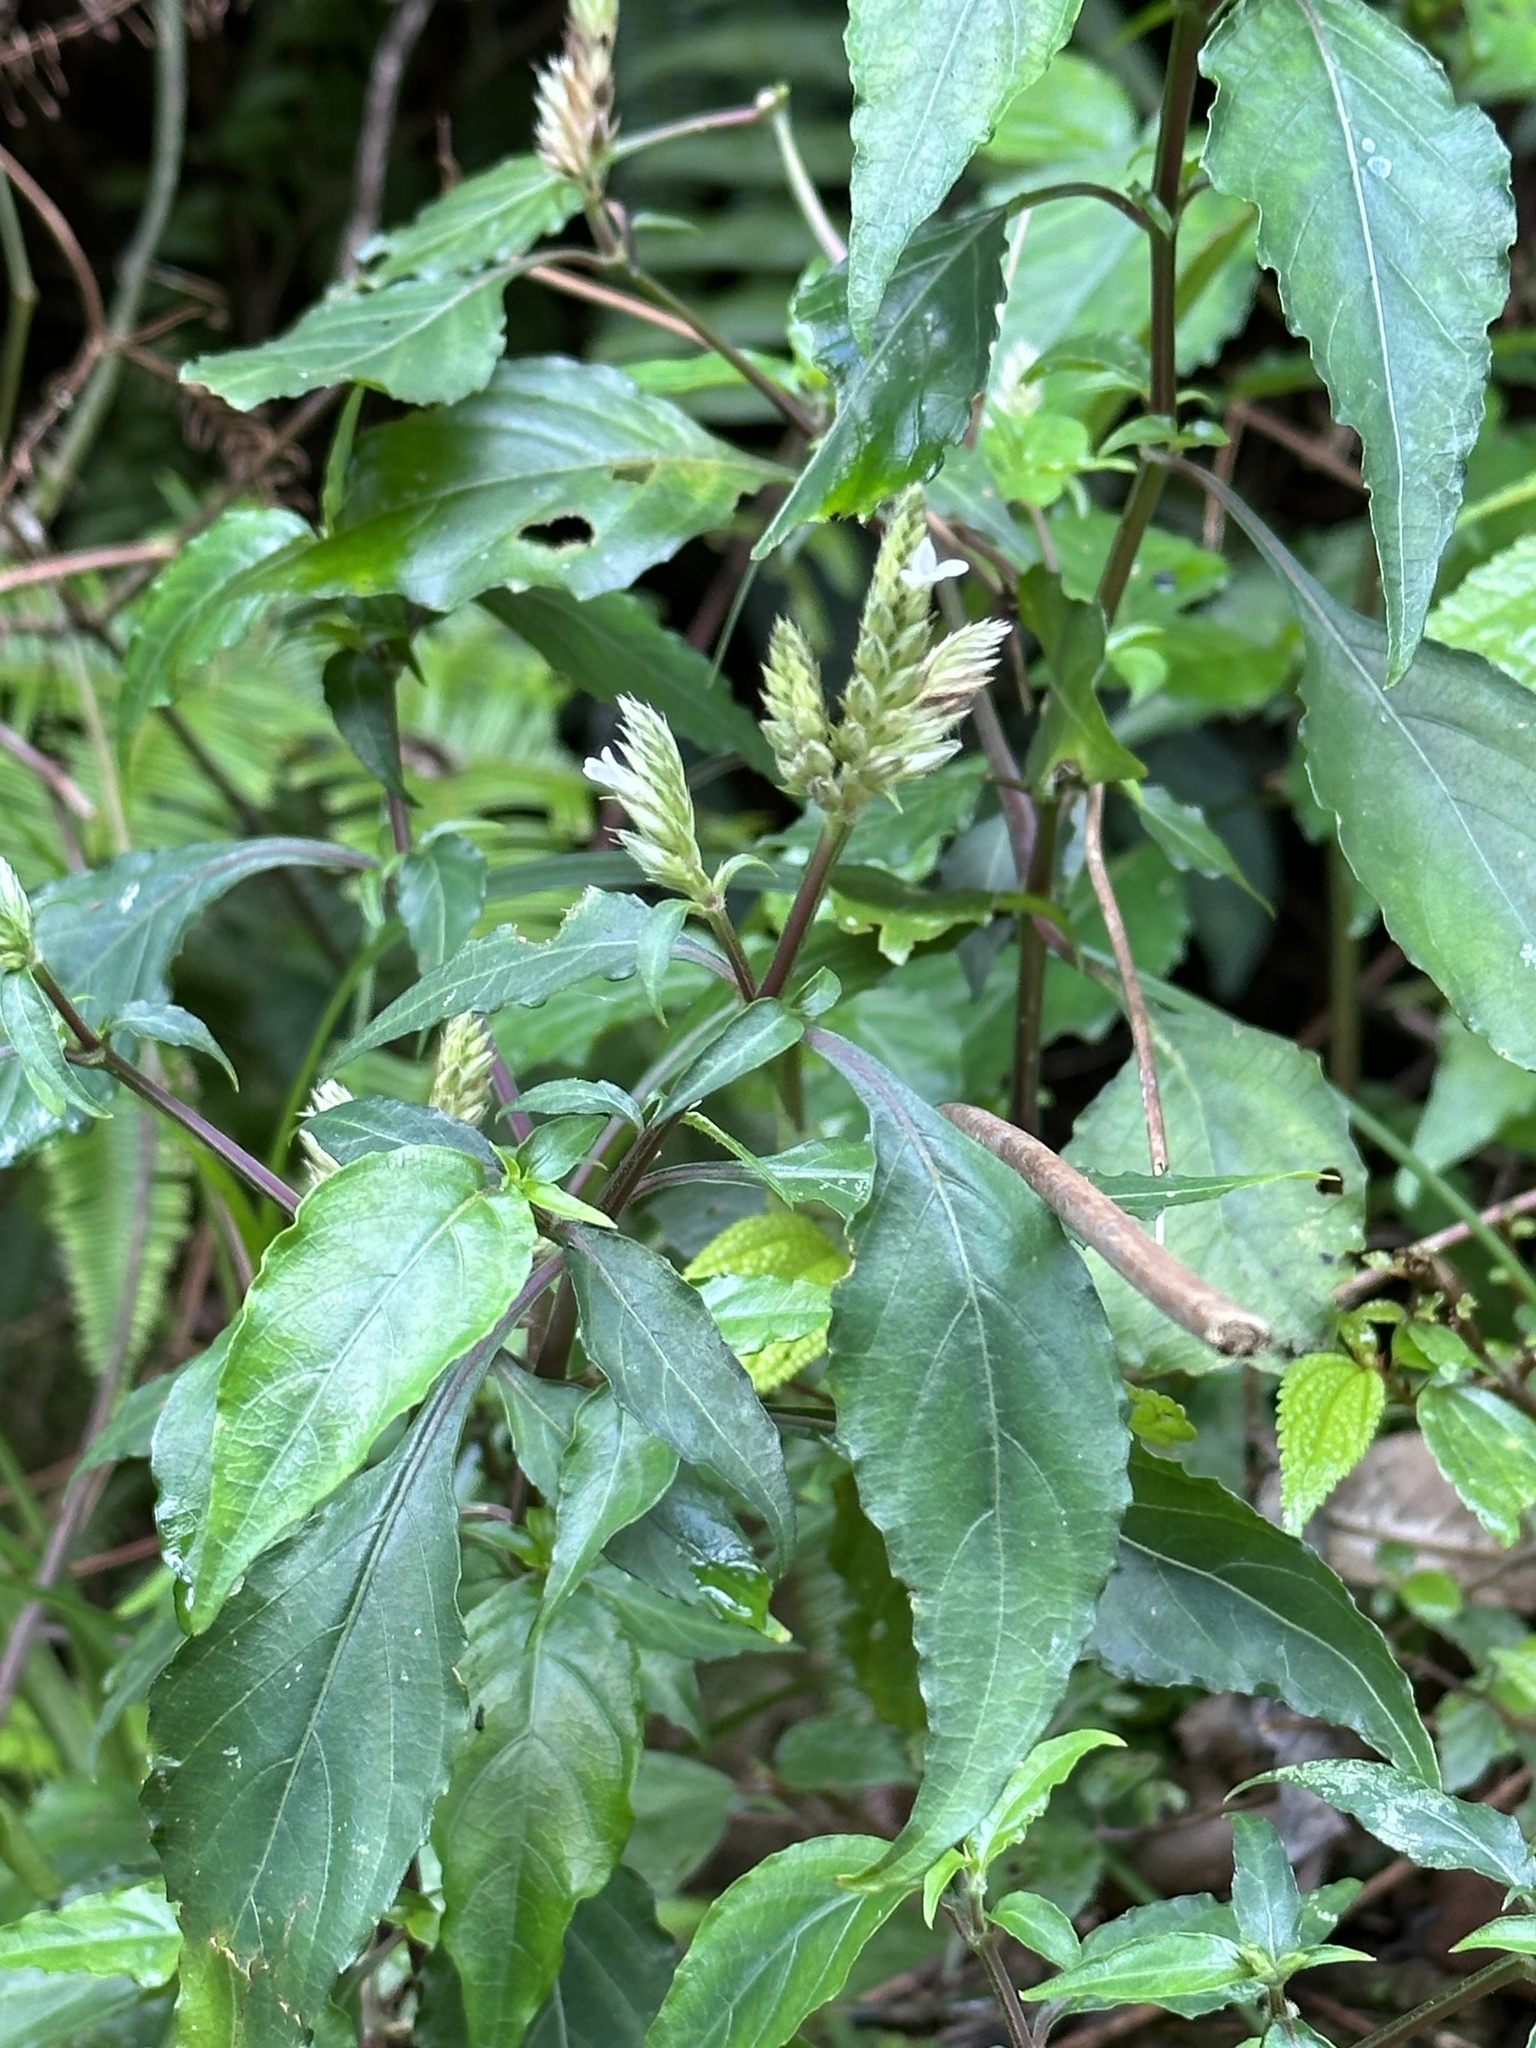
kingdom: Plantae
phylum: Tracheophyta
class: Magnoliopsida
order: Lamiales
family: Acanthaceae
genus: Lepidagathis
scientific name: Lepidagathis formosensis
